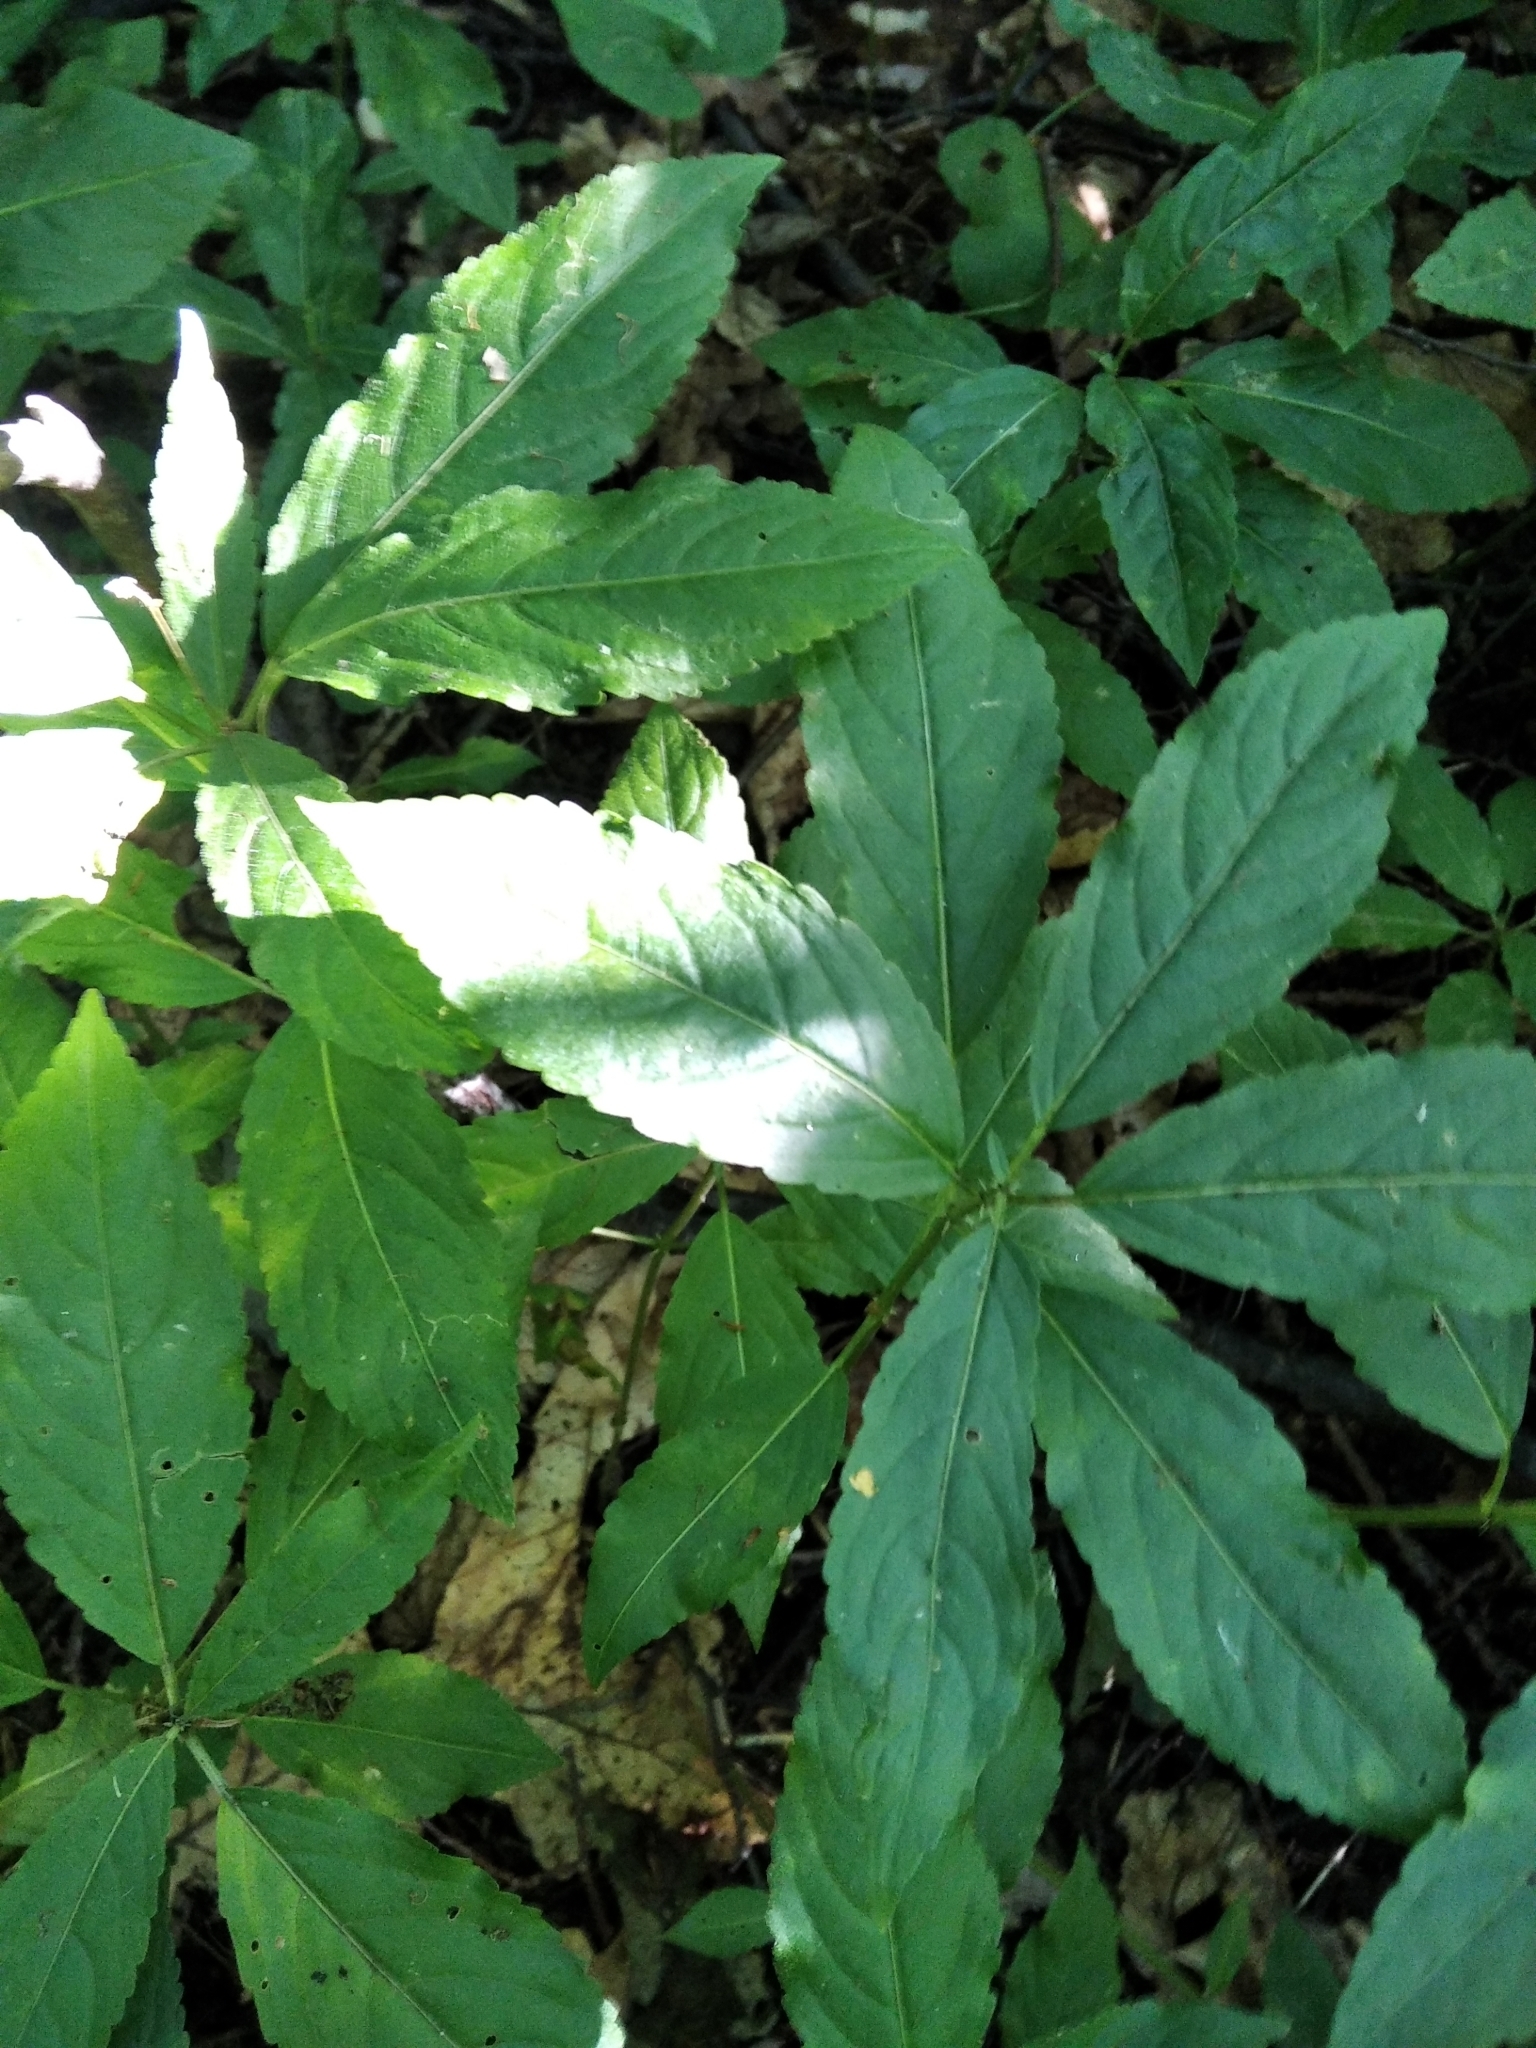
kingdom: Plantae
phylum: Tracheophyta
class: Magnoliopsida
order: Malpighiales
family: Euphorbiaceae
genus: Mercurialis
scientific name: Mercurialis perennis
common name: Dog mercury
